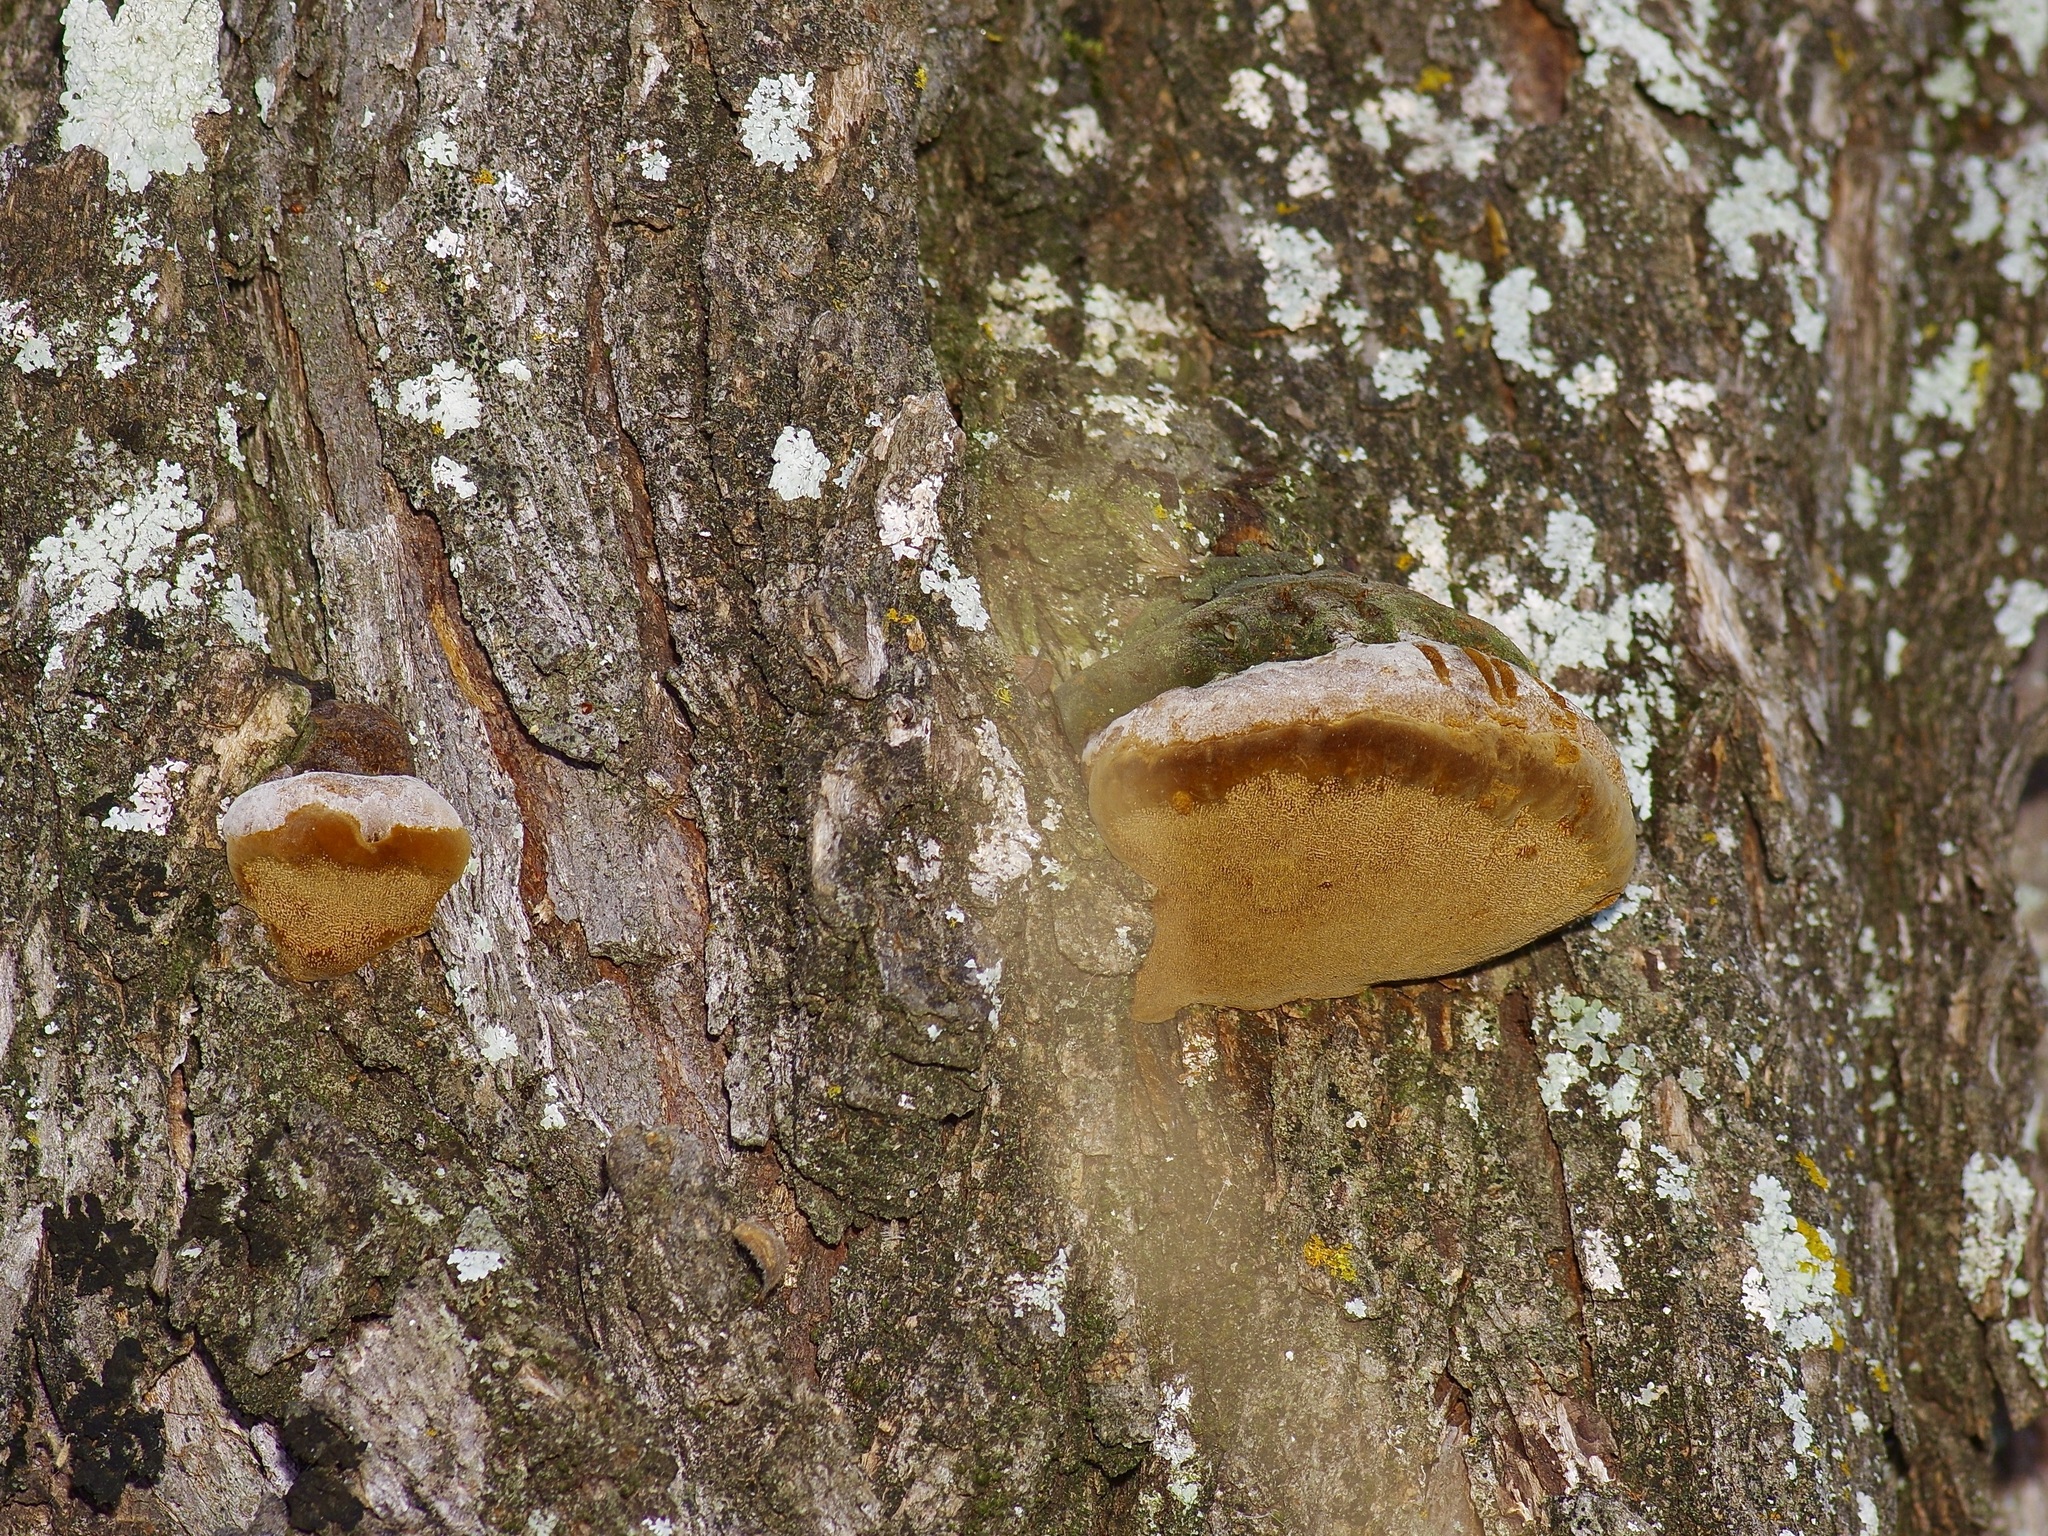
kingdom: Fungi
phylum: Basidiomycota
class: Agaricomycetes
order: Hymenochaetales
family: Hymenochaetaceae
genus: Phellinotus
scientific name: Phellinotus badius
